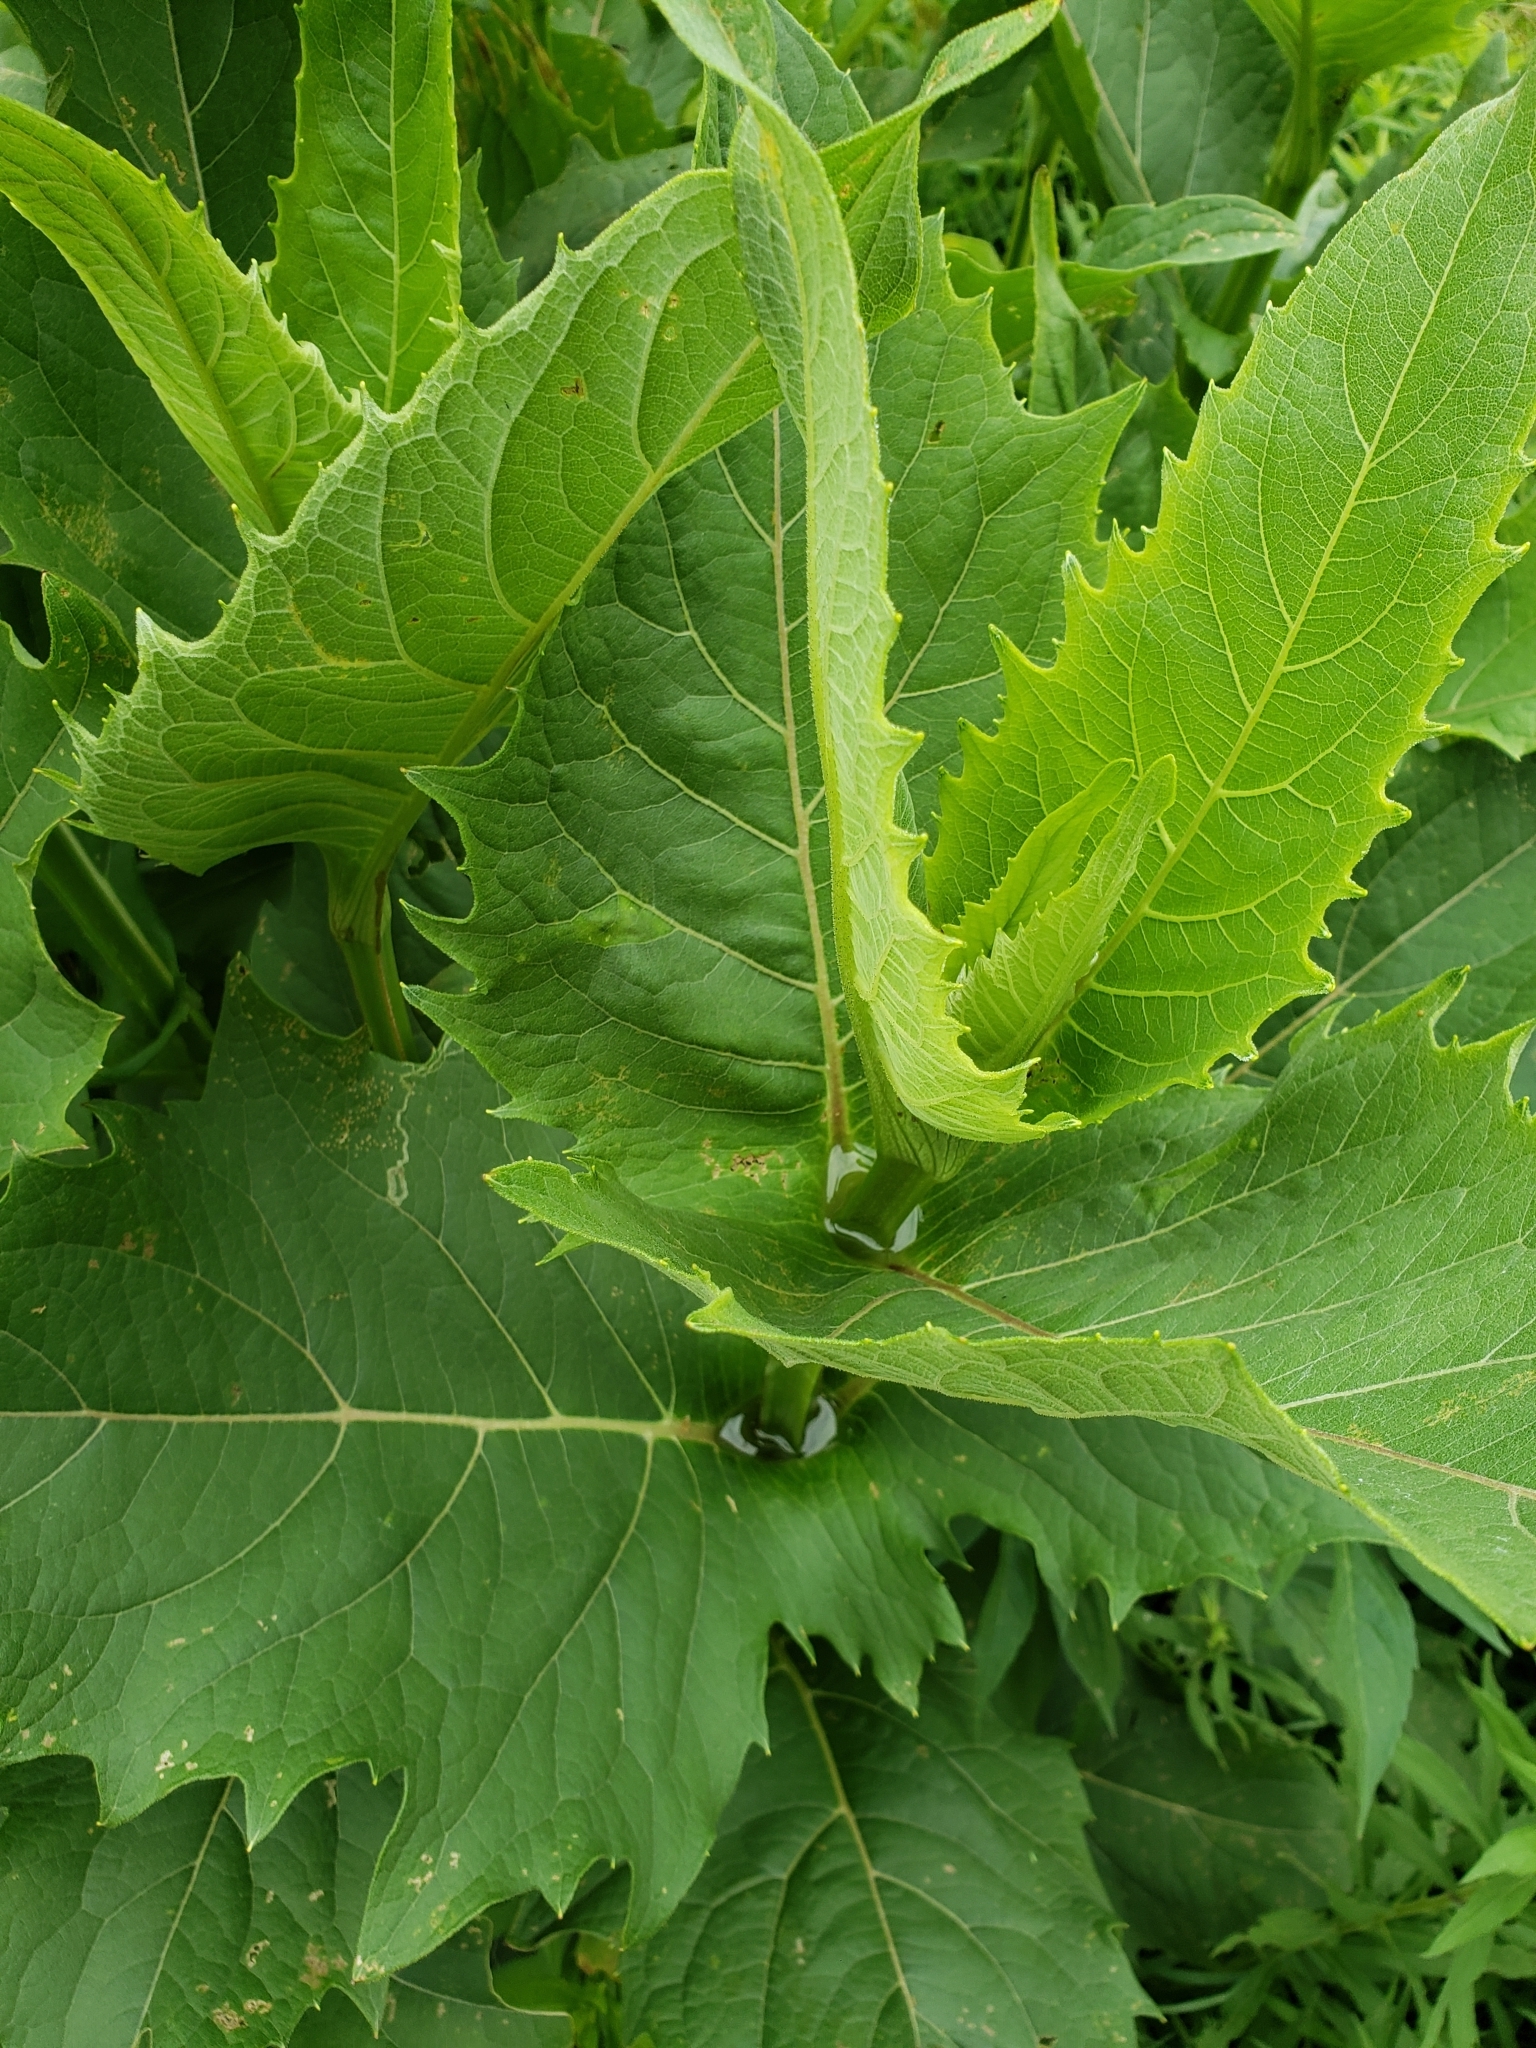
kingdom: Plantae
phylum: Tracheophyta
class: Magnoliopsida
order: Asterales
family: Asteraceae
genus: Silphium
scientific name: Silphium perfoliatum
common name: Cup-plant
